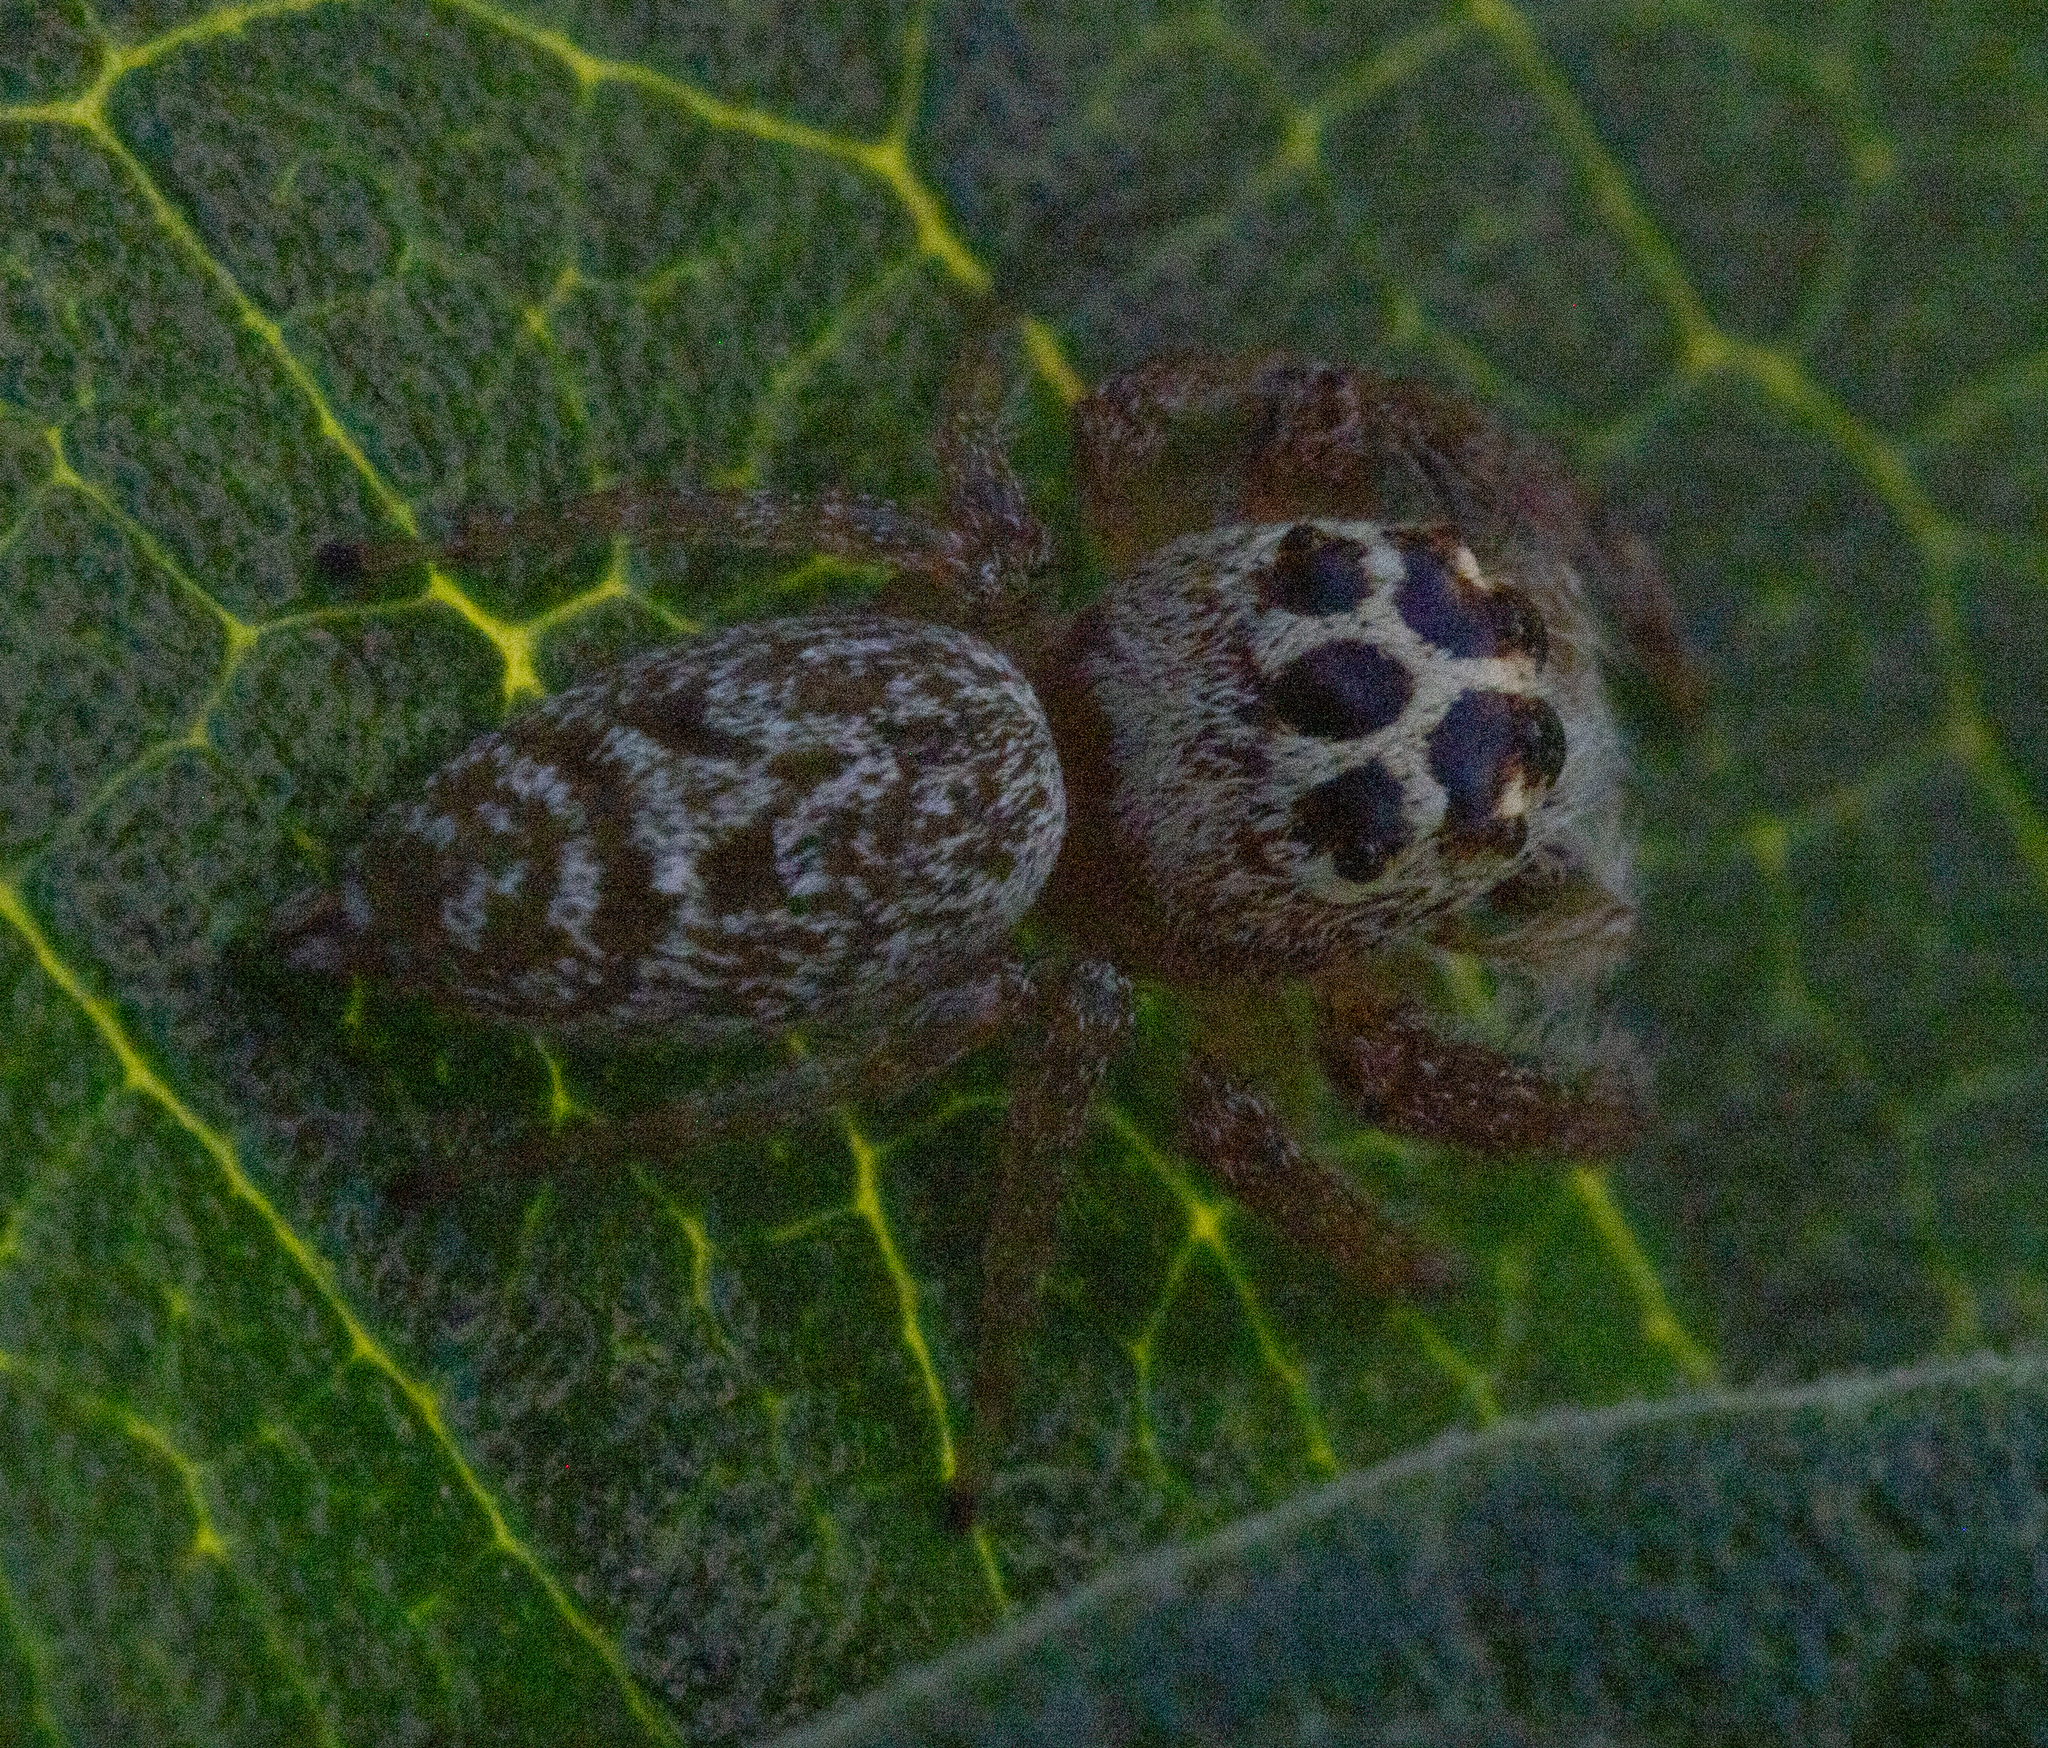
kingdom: Animalia
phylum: Arthropoda
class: Arachnida
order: Araneae
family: Salticidae
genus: Opisthoncus
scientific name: Opisthoncus polyphemus
